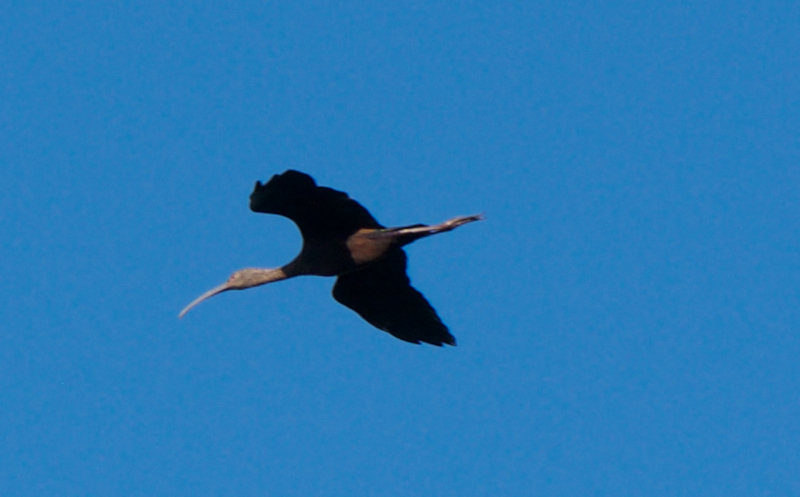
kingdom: Animalia
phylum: Chordata
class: Aves
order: Pelecaniformes
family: Threskiornithidae
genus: Plegadis
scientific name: Plegadis chihi
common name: White-faced ibis
